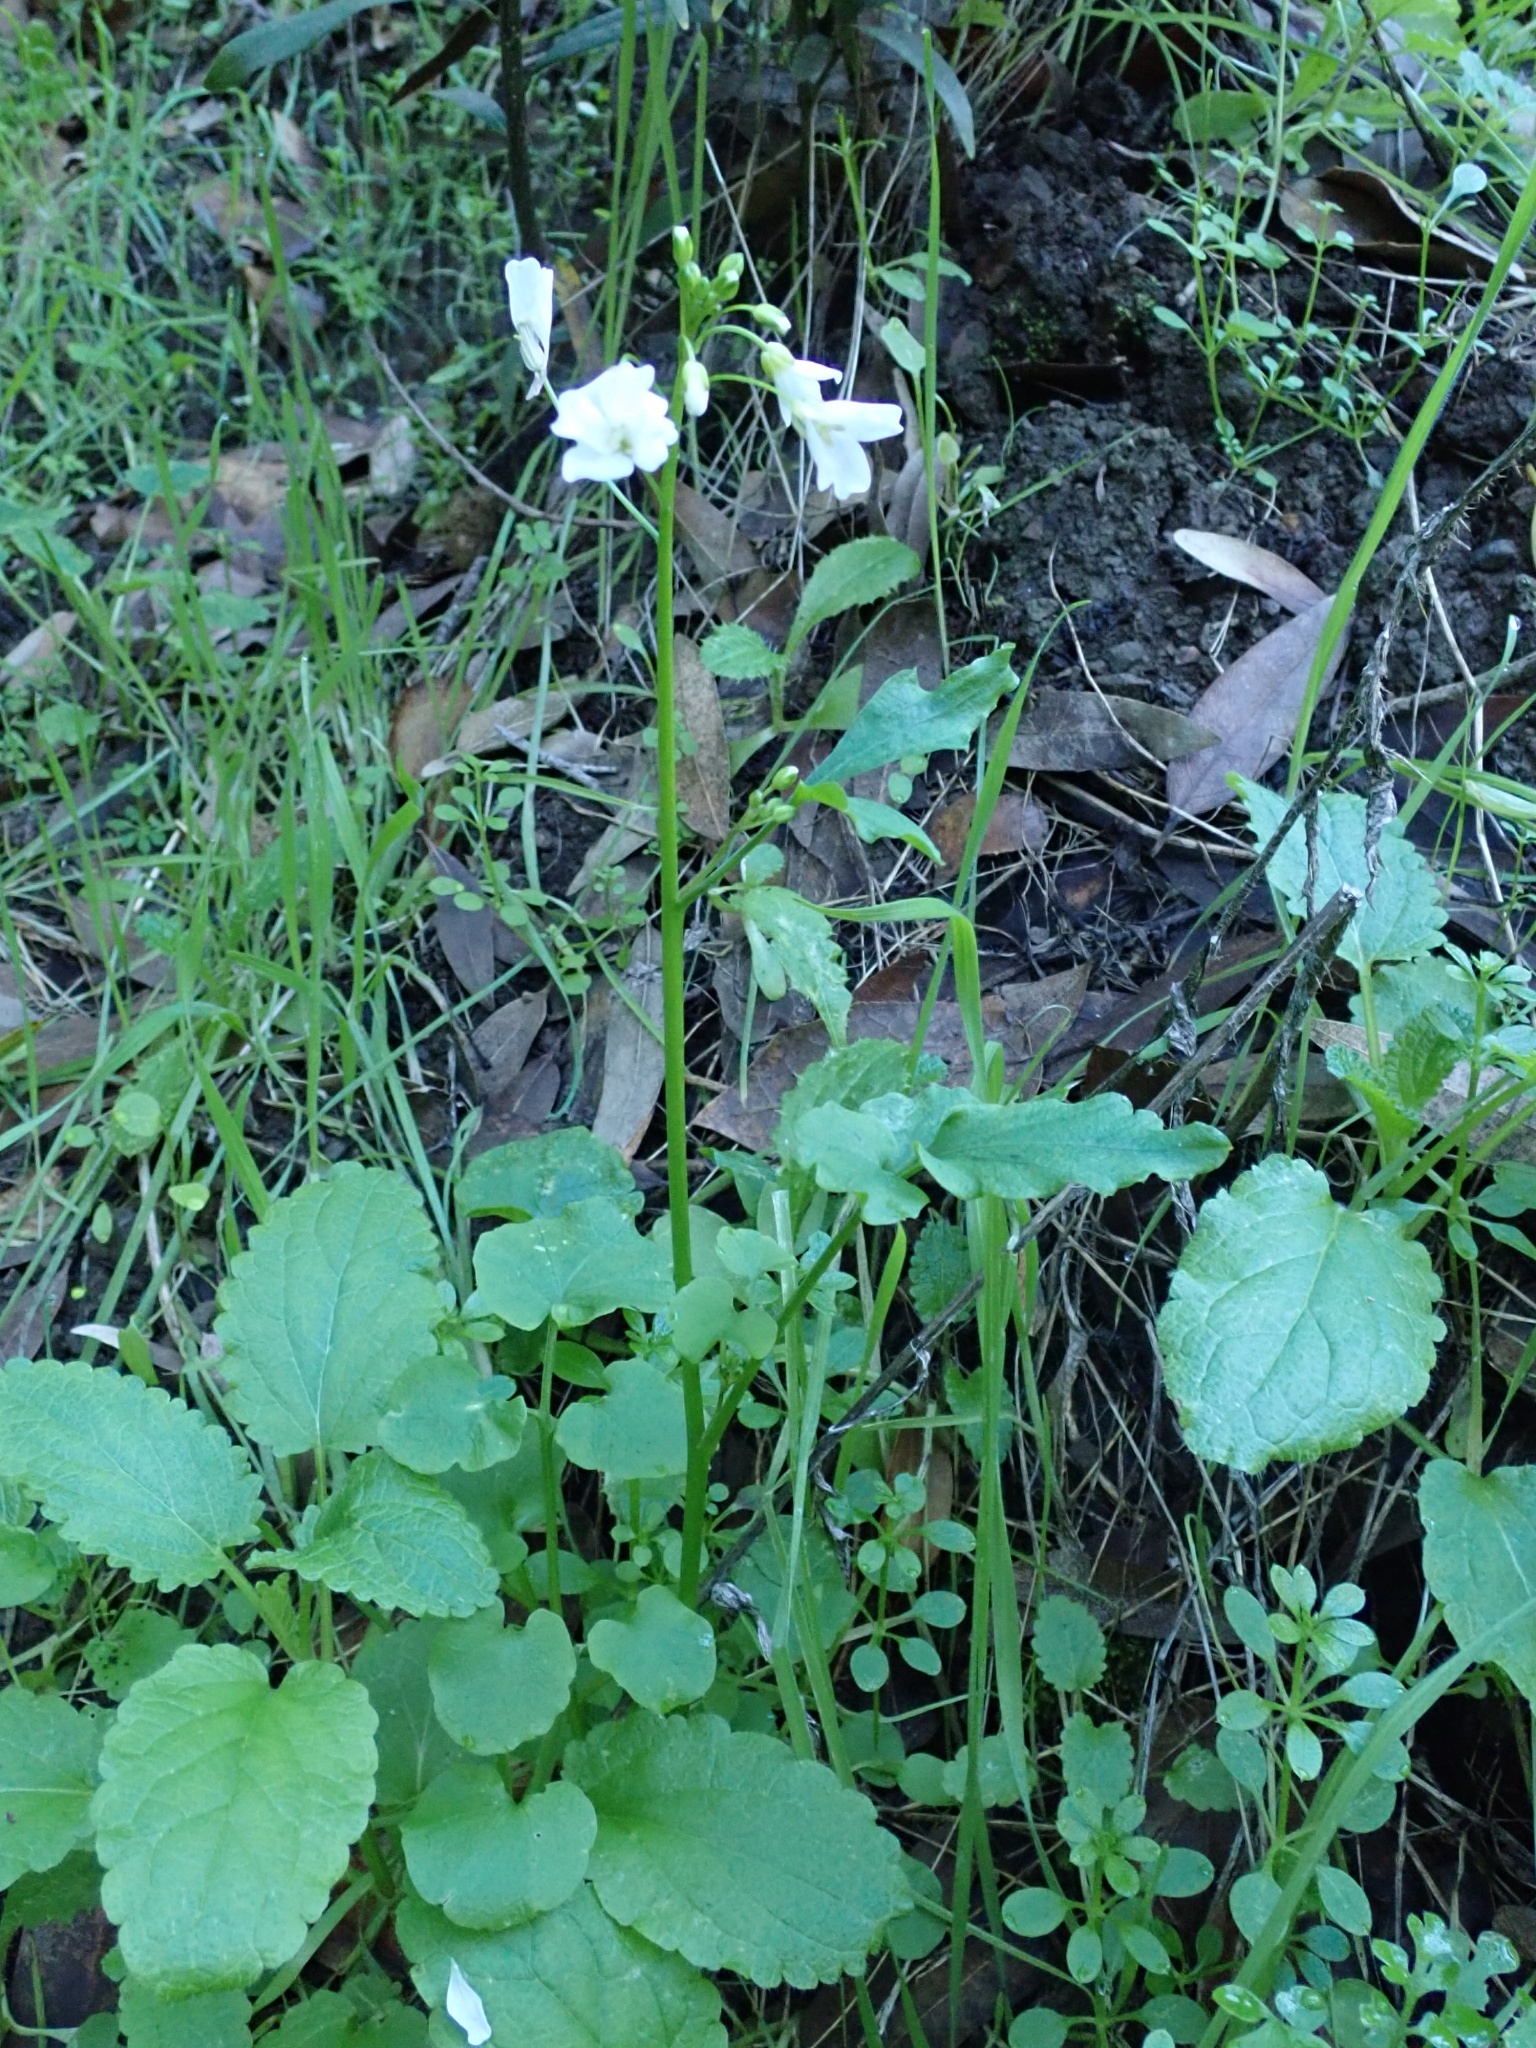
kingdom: Plantae
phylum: Tracheophyta
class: Magnoliopsida
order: Brassicales
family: Brassicaceae
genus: Cardamine
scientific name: Cardamine californica
